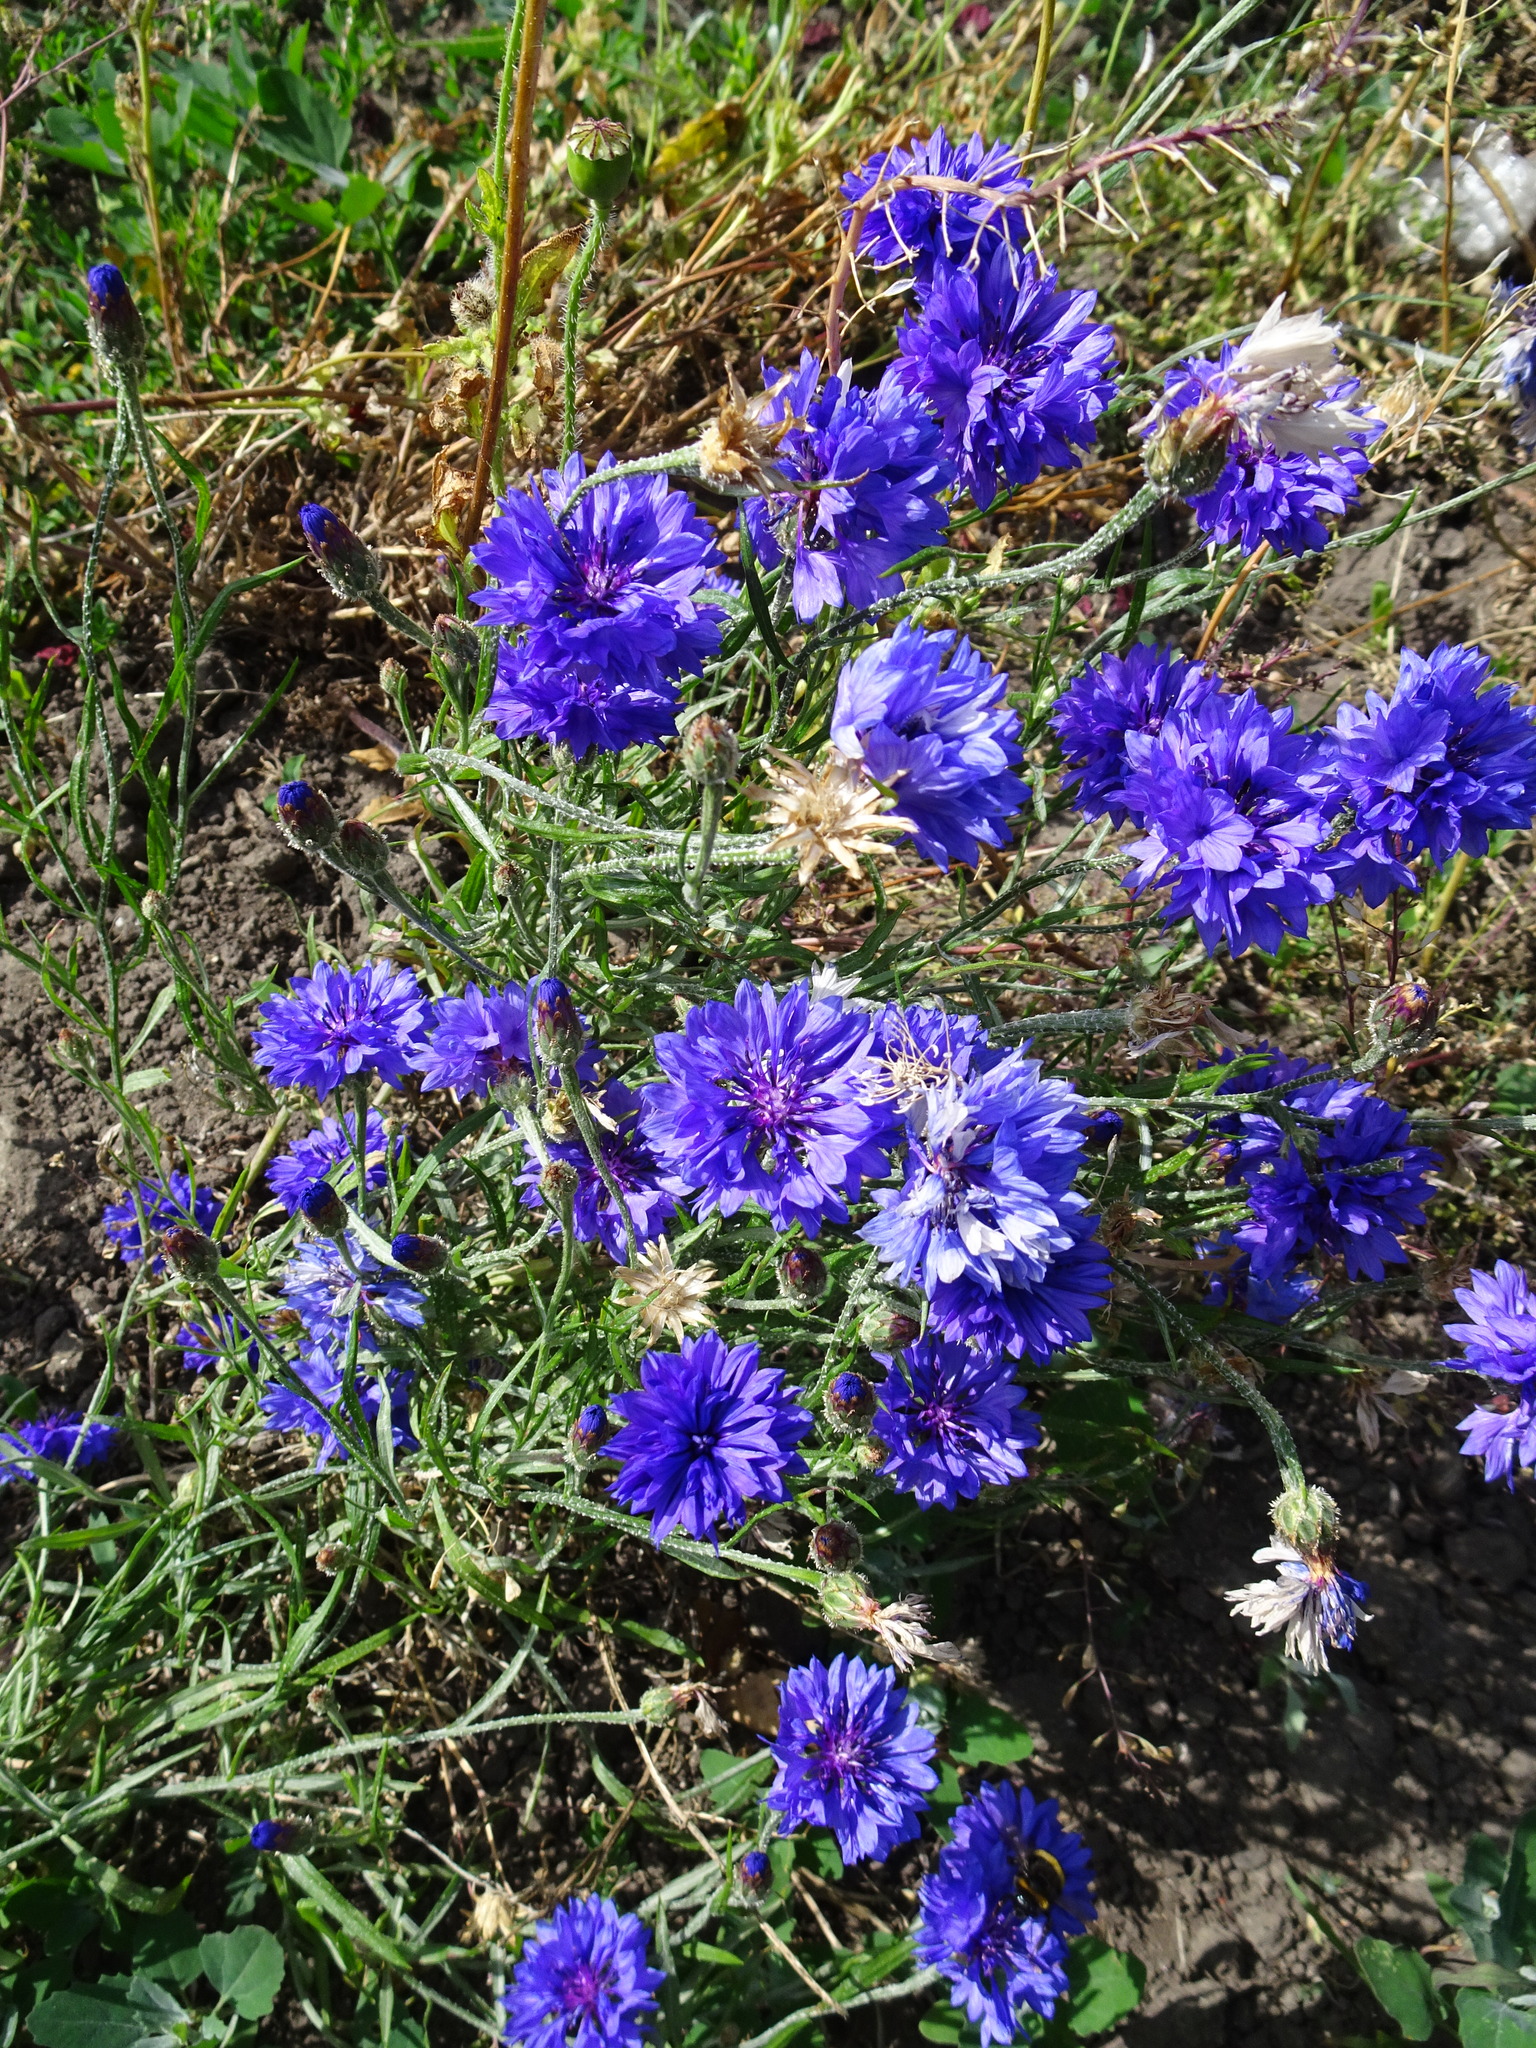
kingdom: Plantae
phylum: Tracheophyta
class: Magnoliopsida
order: Asterales
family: Asteraceae
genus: Centaurea
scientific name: Centaurea cyanus
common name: Cornflower
